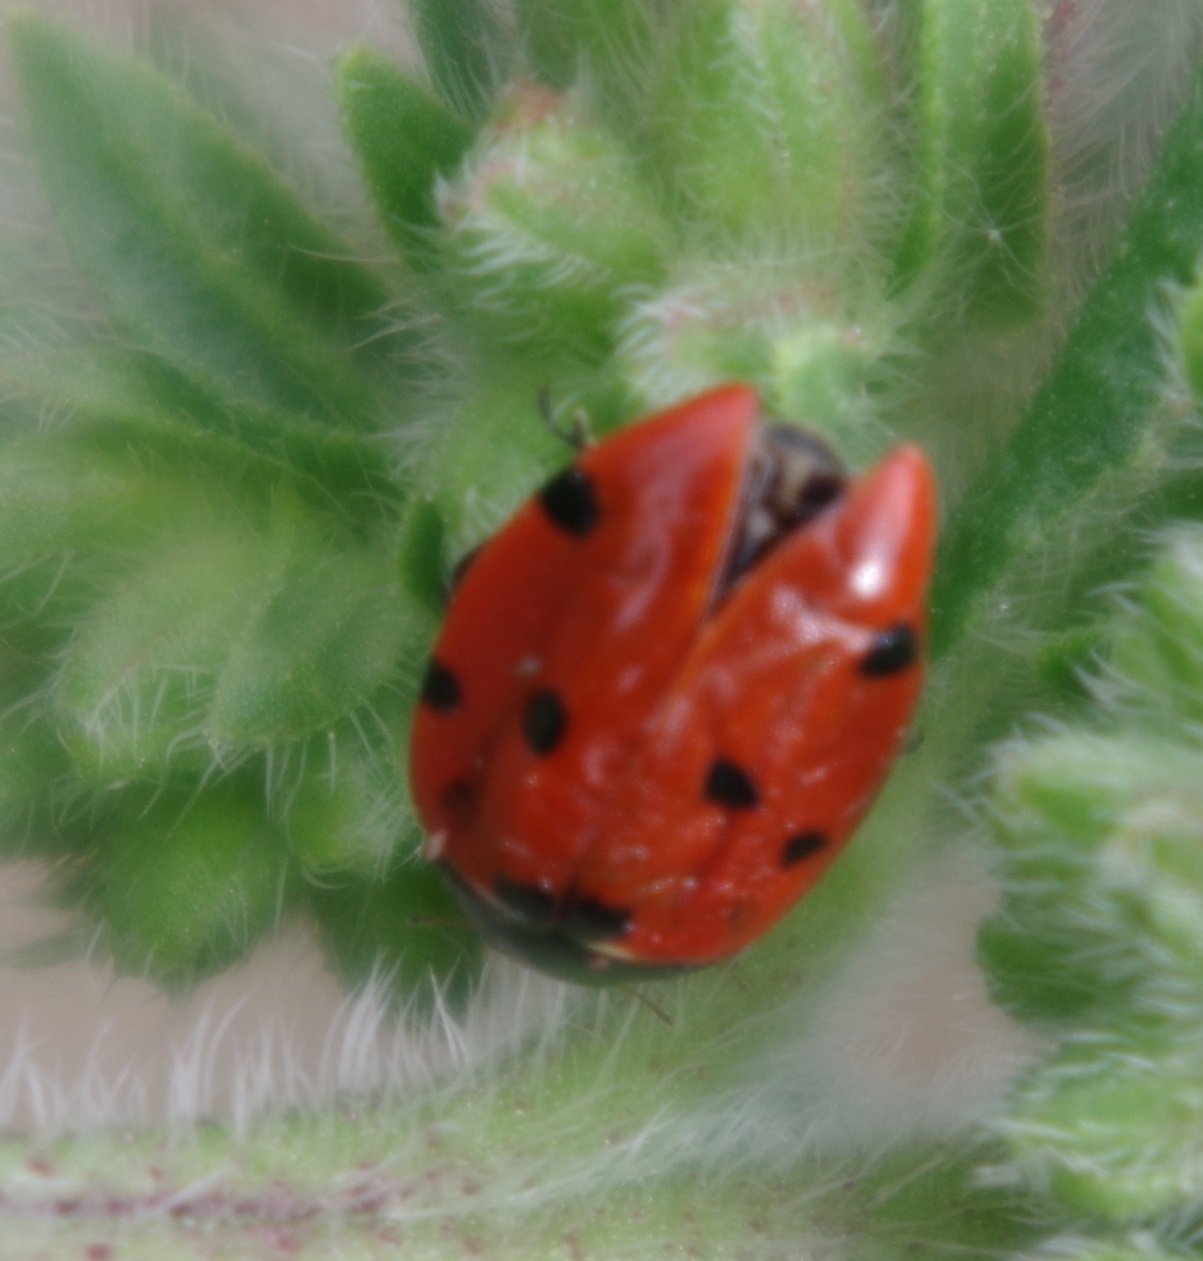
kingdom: Animalia
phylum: Arthropoda
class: Insecta
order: Coleoptera
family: Coccinellidae
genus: Coccinella
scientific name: Coccinella septempunctata
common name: Sevenspotted lady beetle
